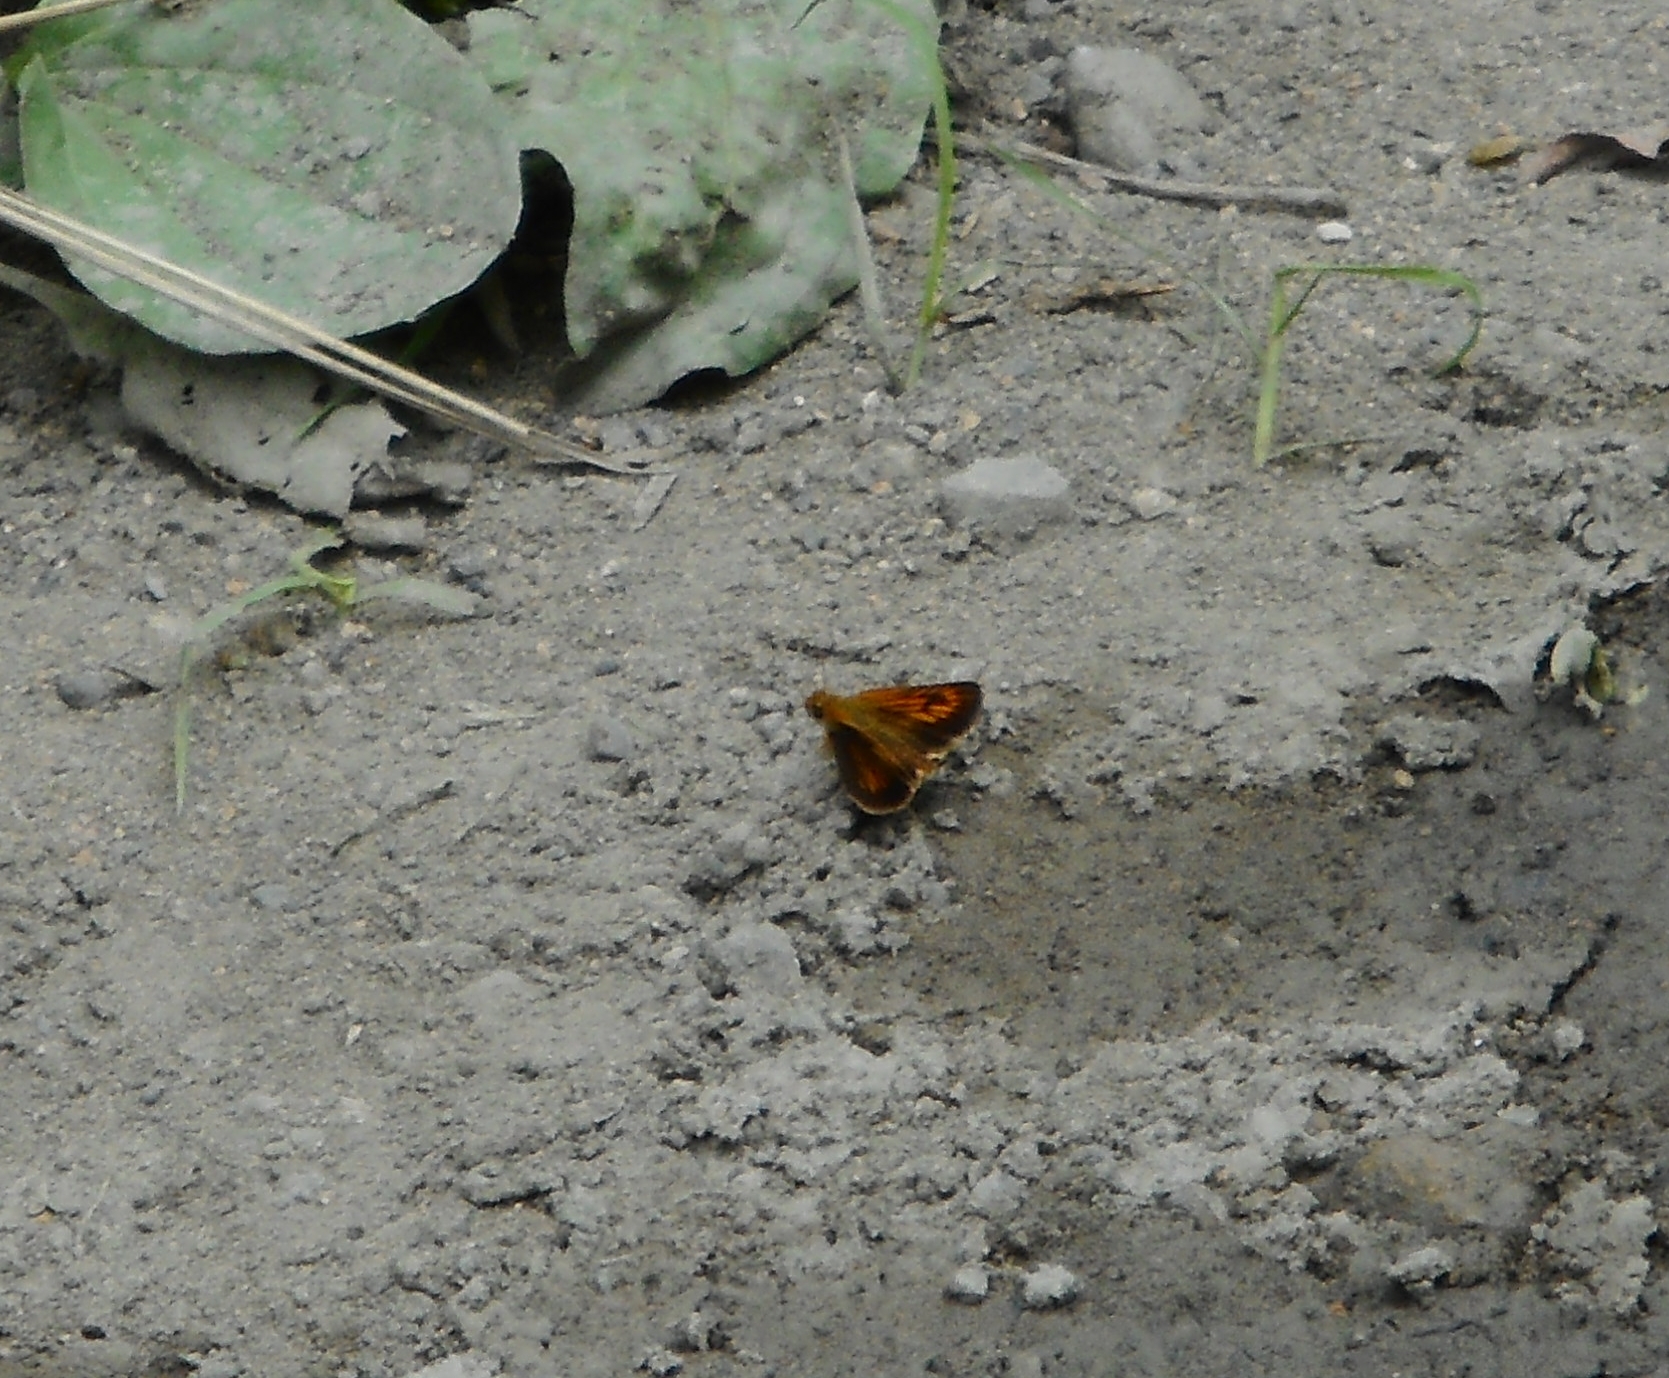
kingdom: Animalia
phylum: Arthropoda
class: Insecta
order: Lepidoptera
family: Hesperiidae
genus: Ochlodes
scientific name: Ochlodes ochracea
